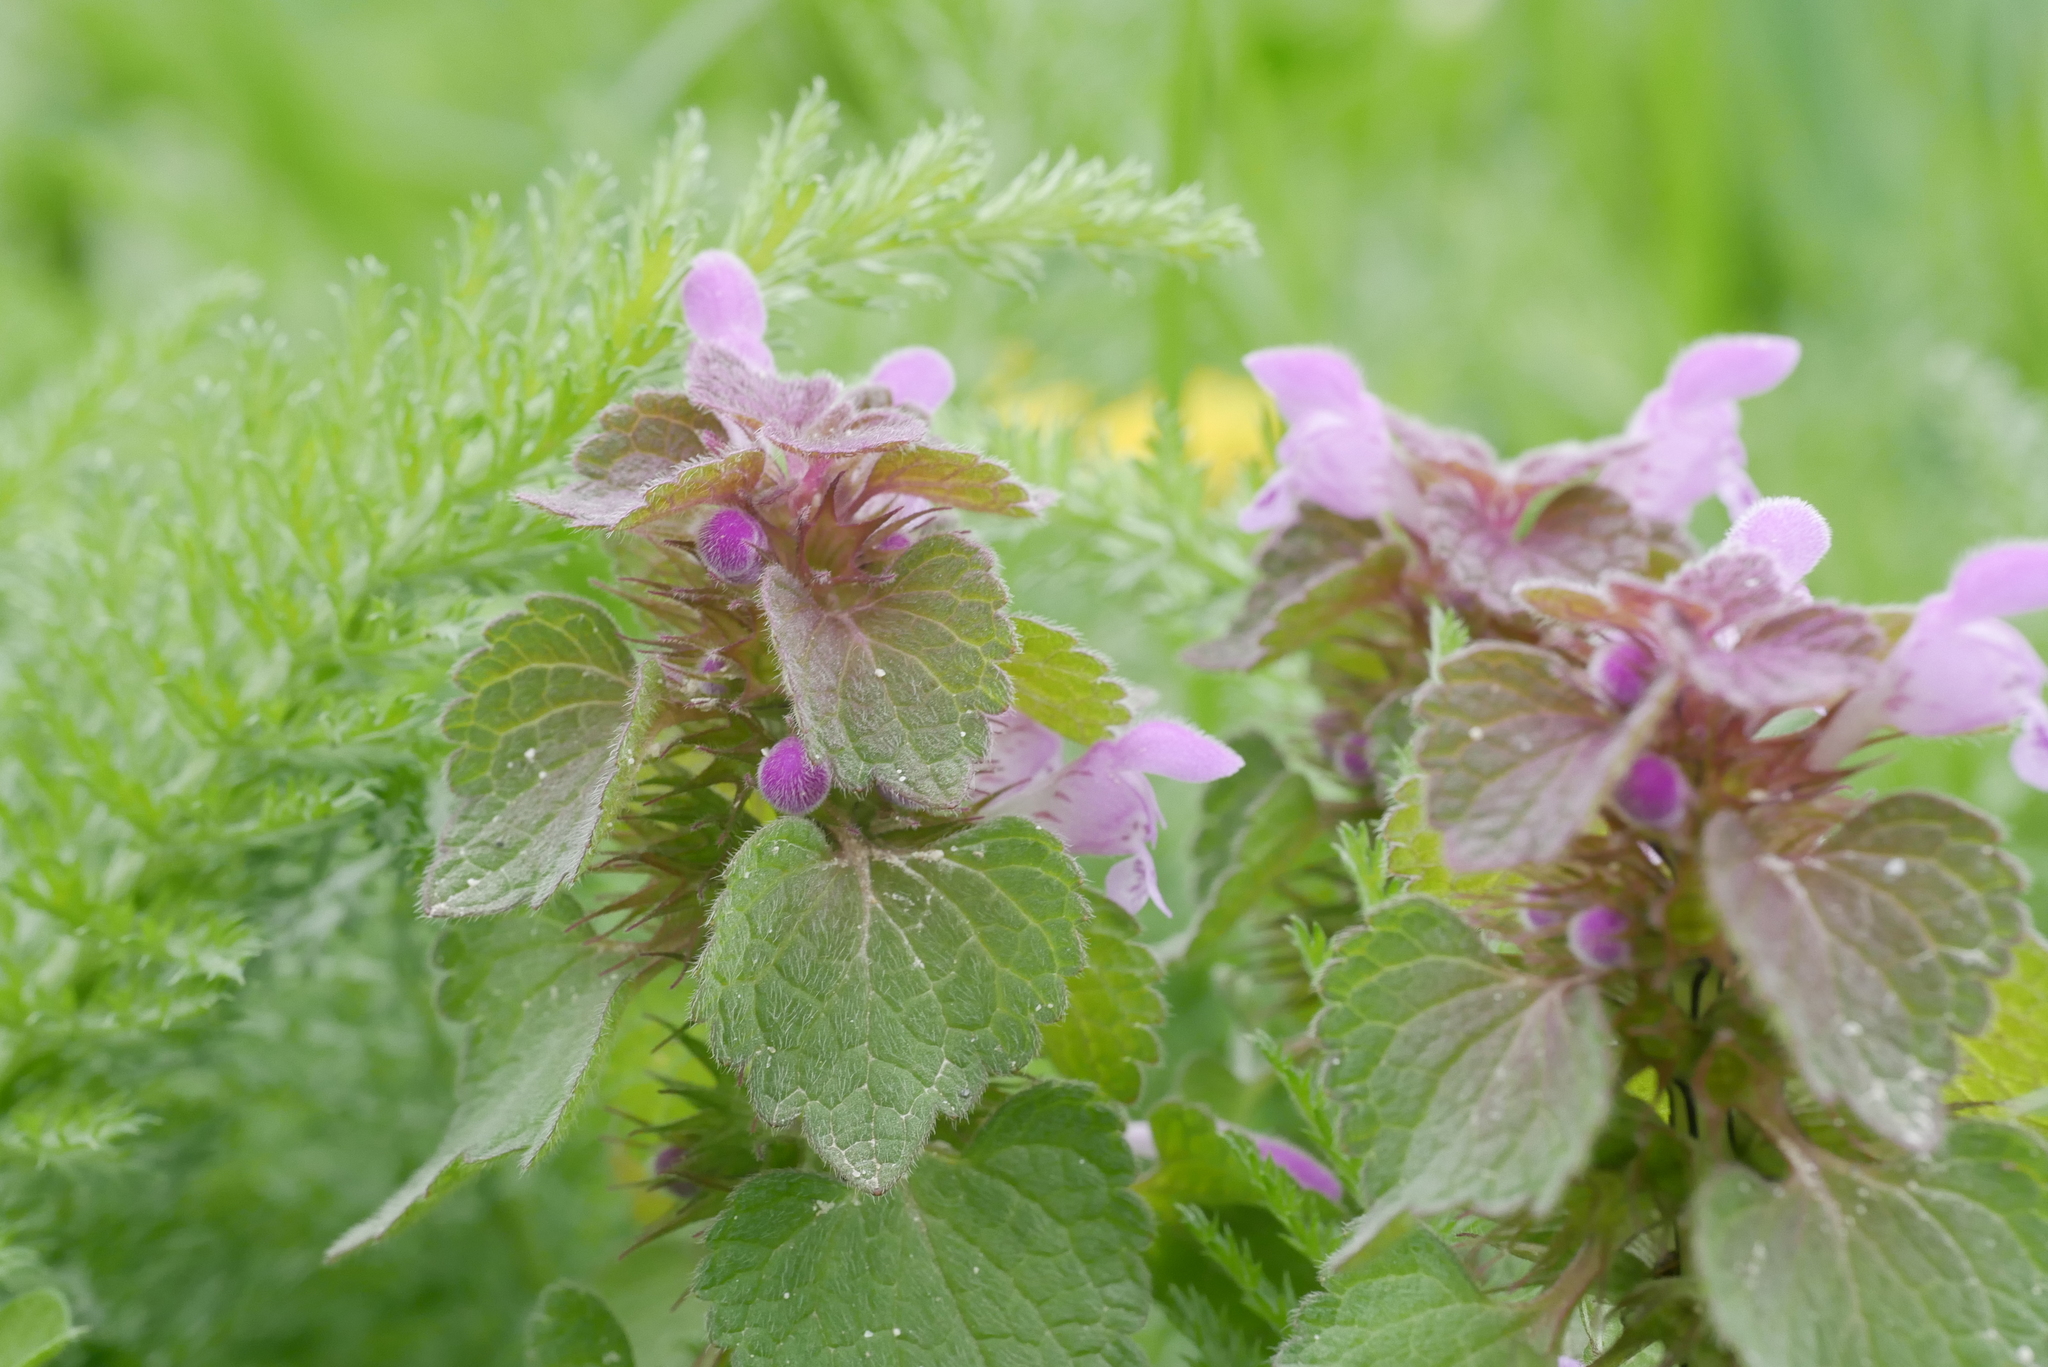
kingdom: Plantae
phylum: Tracheophyta
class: Magnoliopsida
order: Lamiales
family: Lamiaceae
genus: Lamium
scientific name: Lamium purpureum
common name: Red dead-nettle
